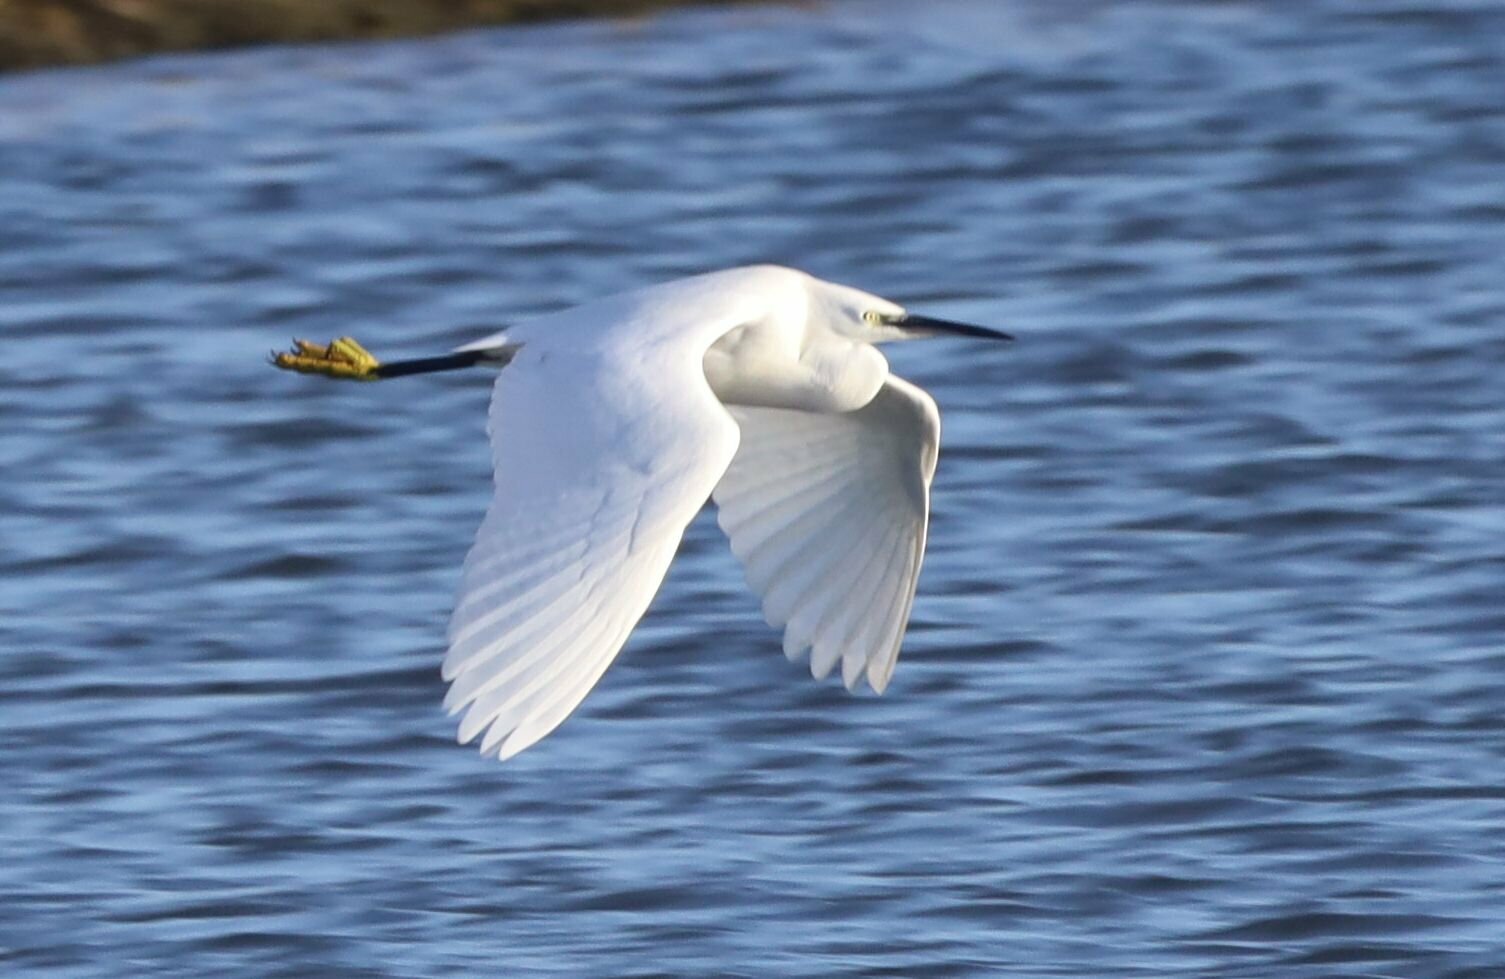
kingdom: Animalia
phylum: Chordata
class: Aves
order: Pelecaniformes
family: Ardeidae
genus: Egretta
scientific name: Egretta garzetta
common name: Little egret
